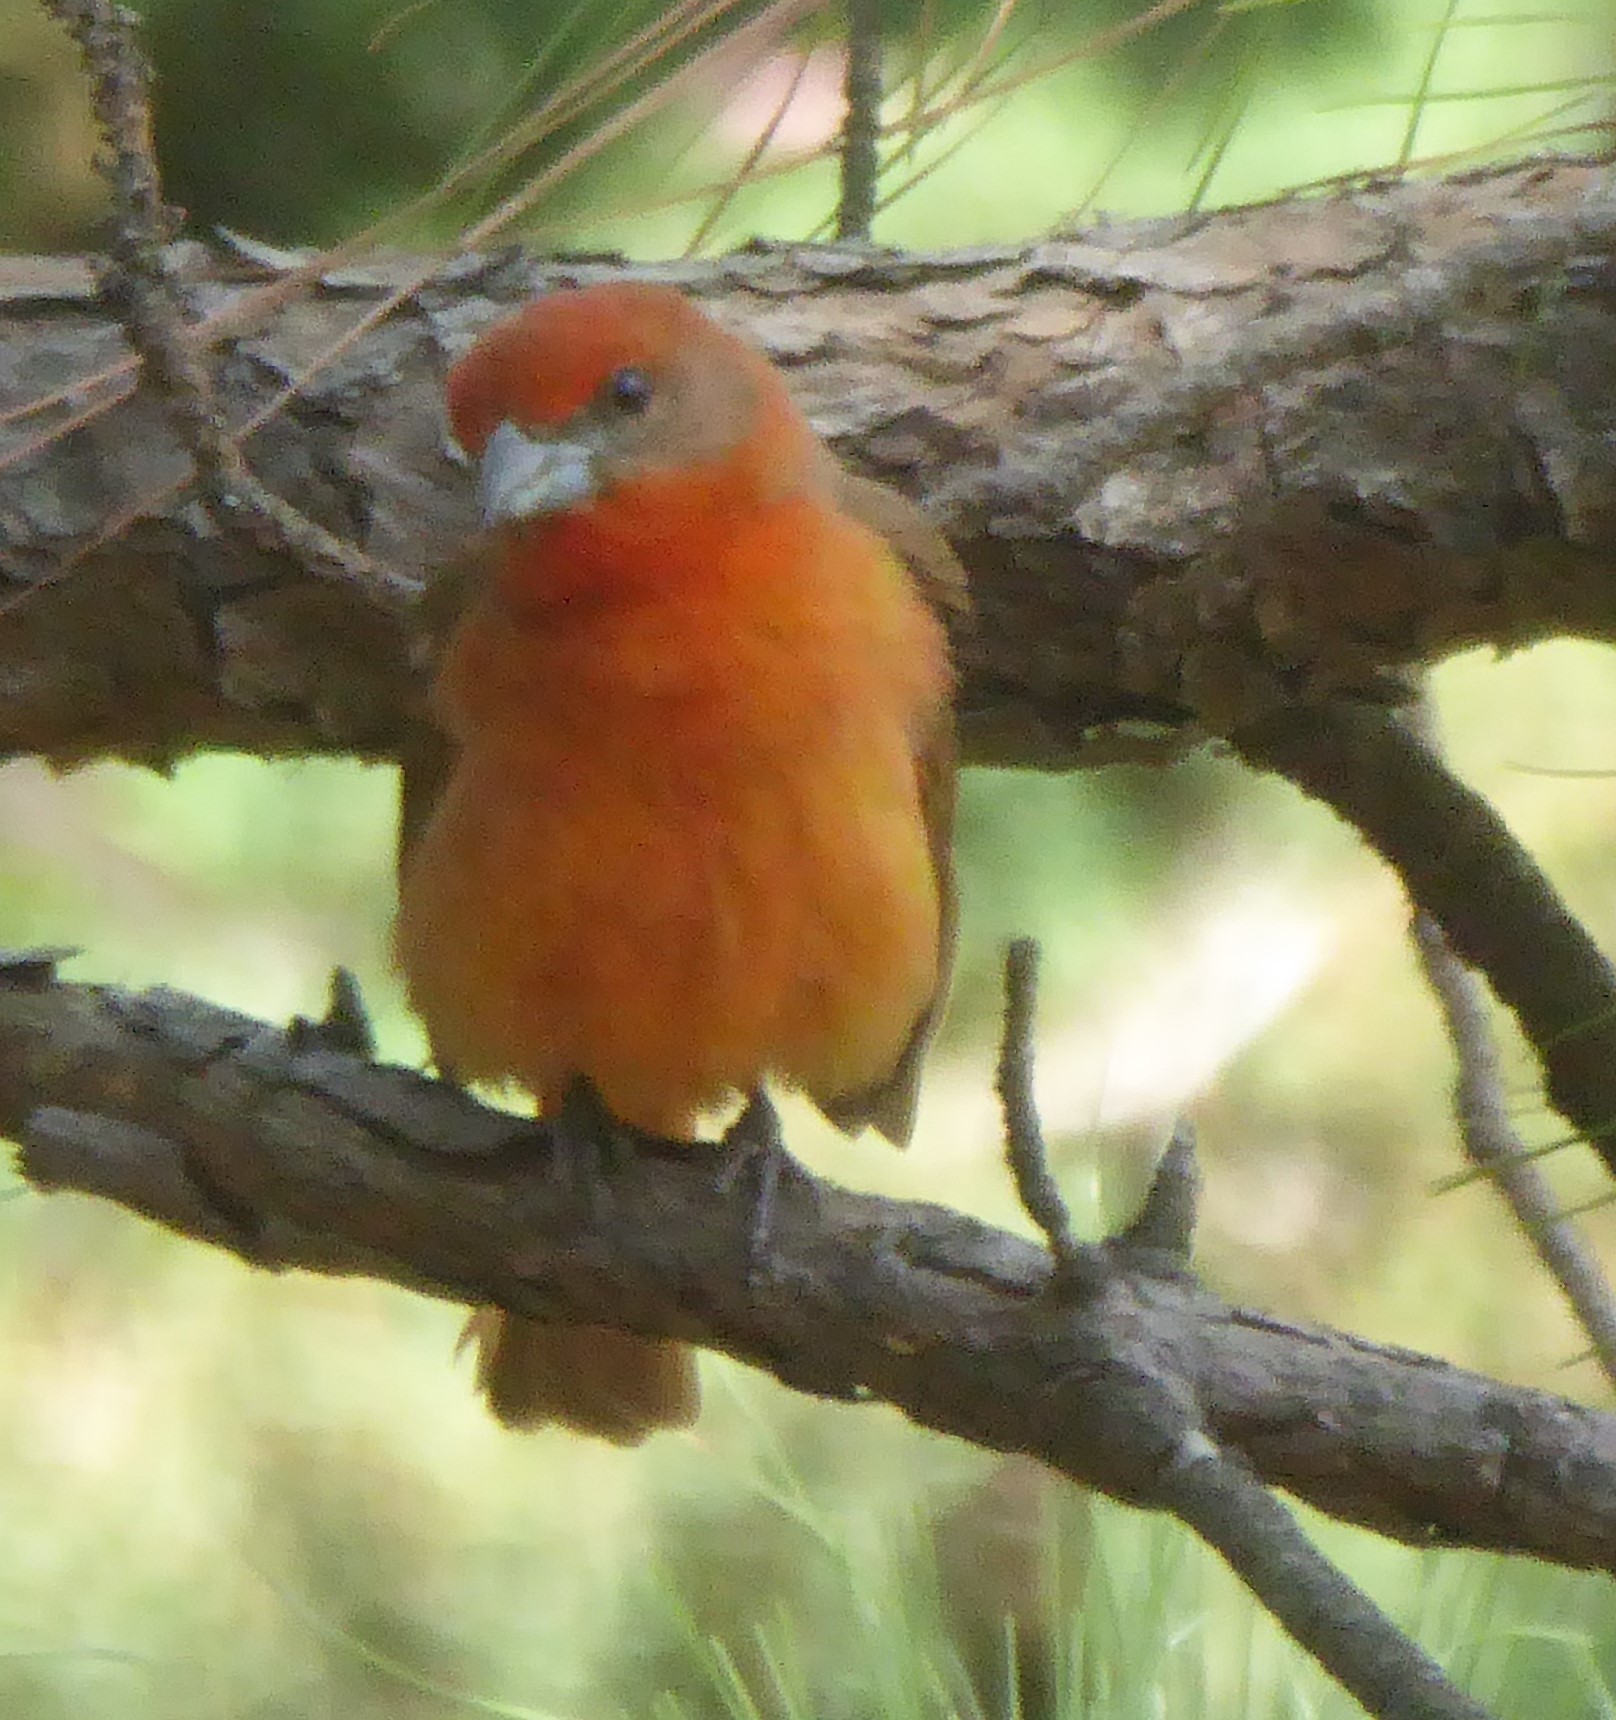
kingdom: Animalia
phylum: Chordata
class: Aves
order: Passeriformes
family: Cardinalidae
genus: Piranga
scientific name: Piranga flava
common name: Red tanager
